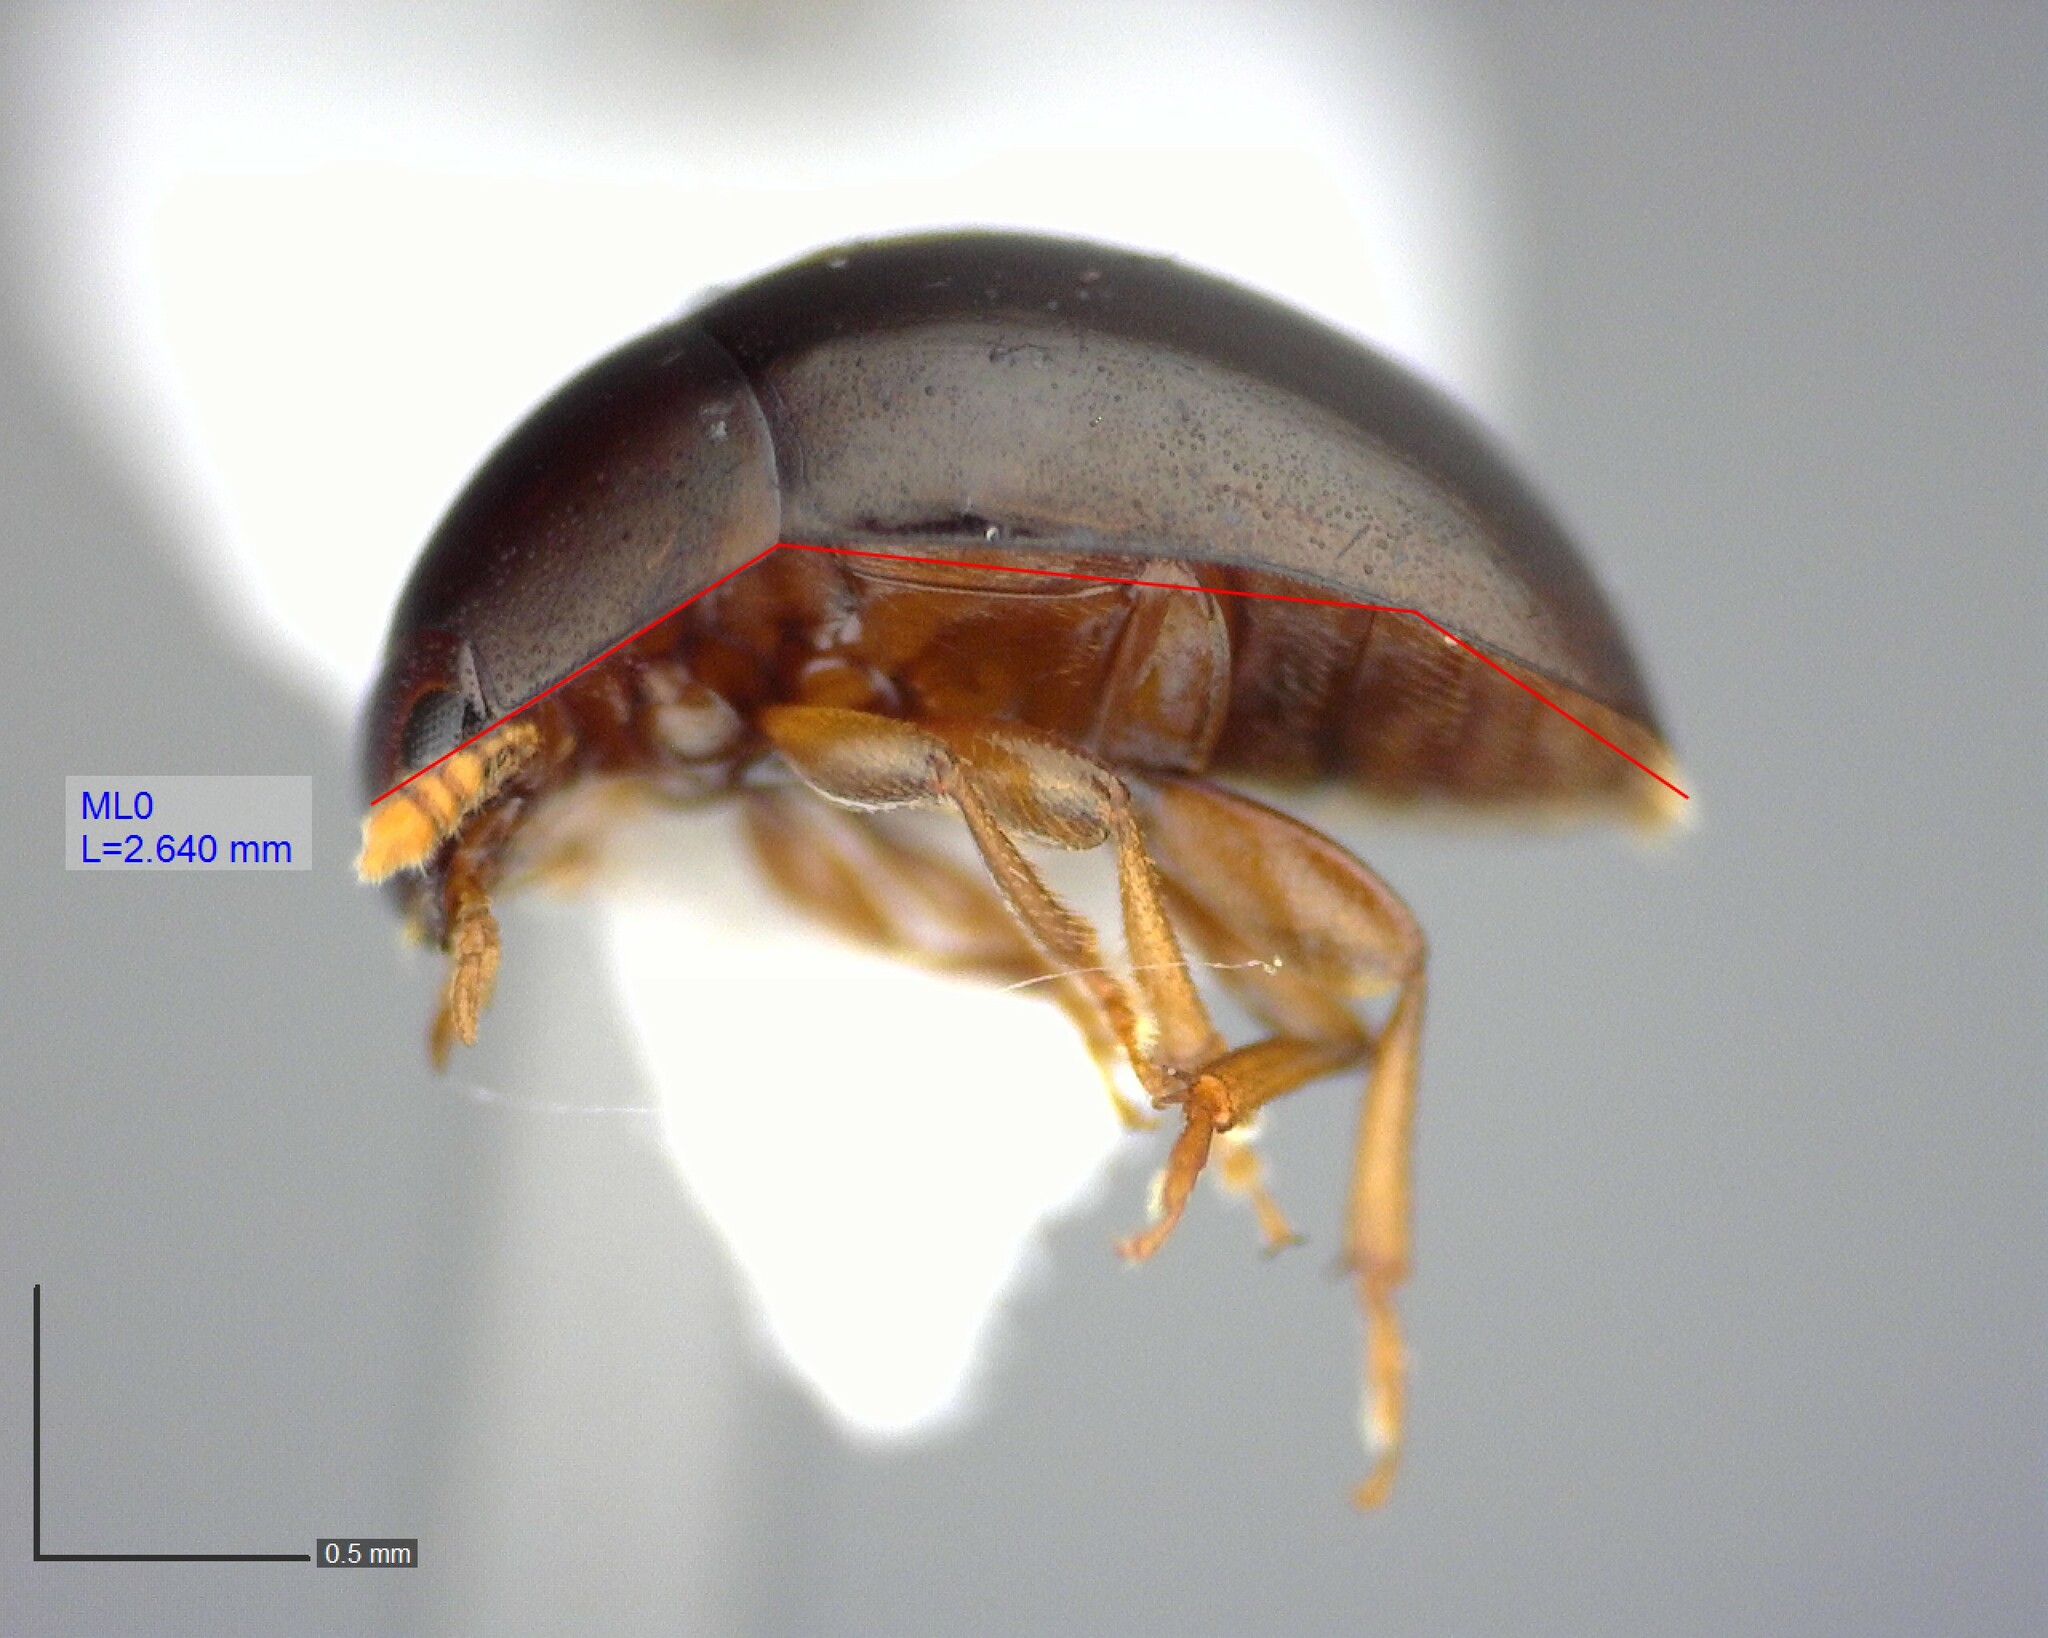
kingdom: Animalia
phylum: Arthropoda
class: Insecta
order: Coleoptera
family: Phalacridae
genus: Olibrus
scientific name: Olibrus
